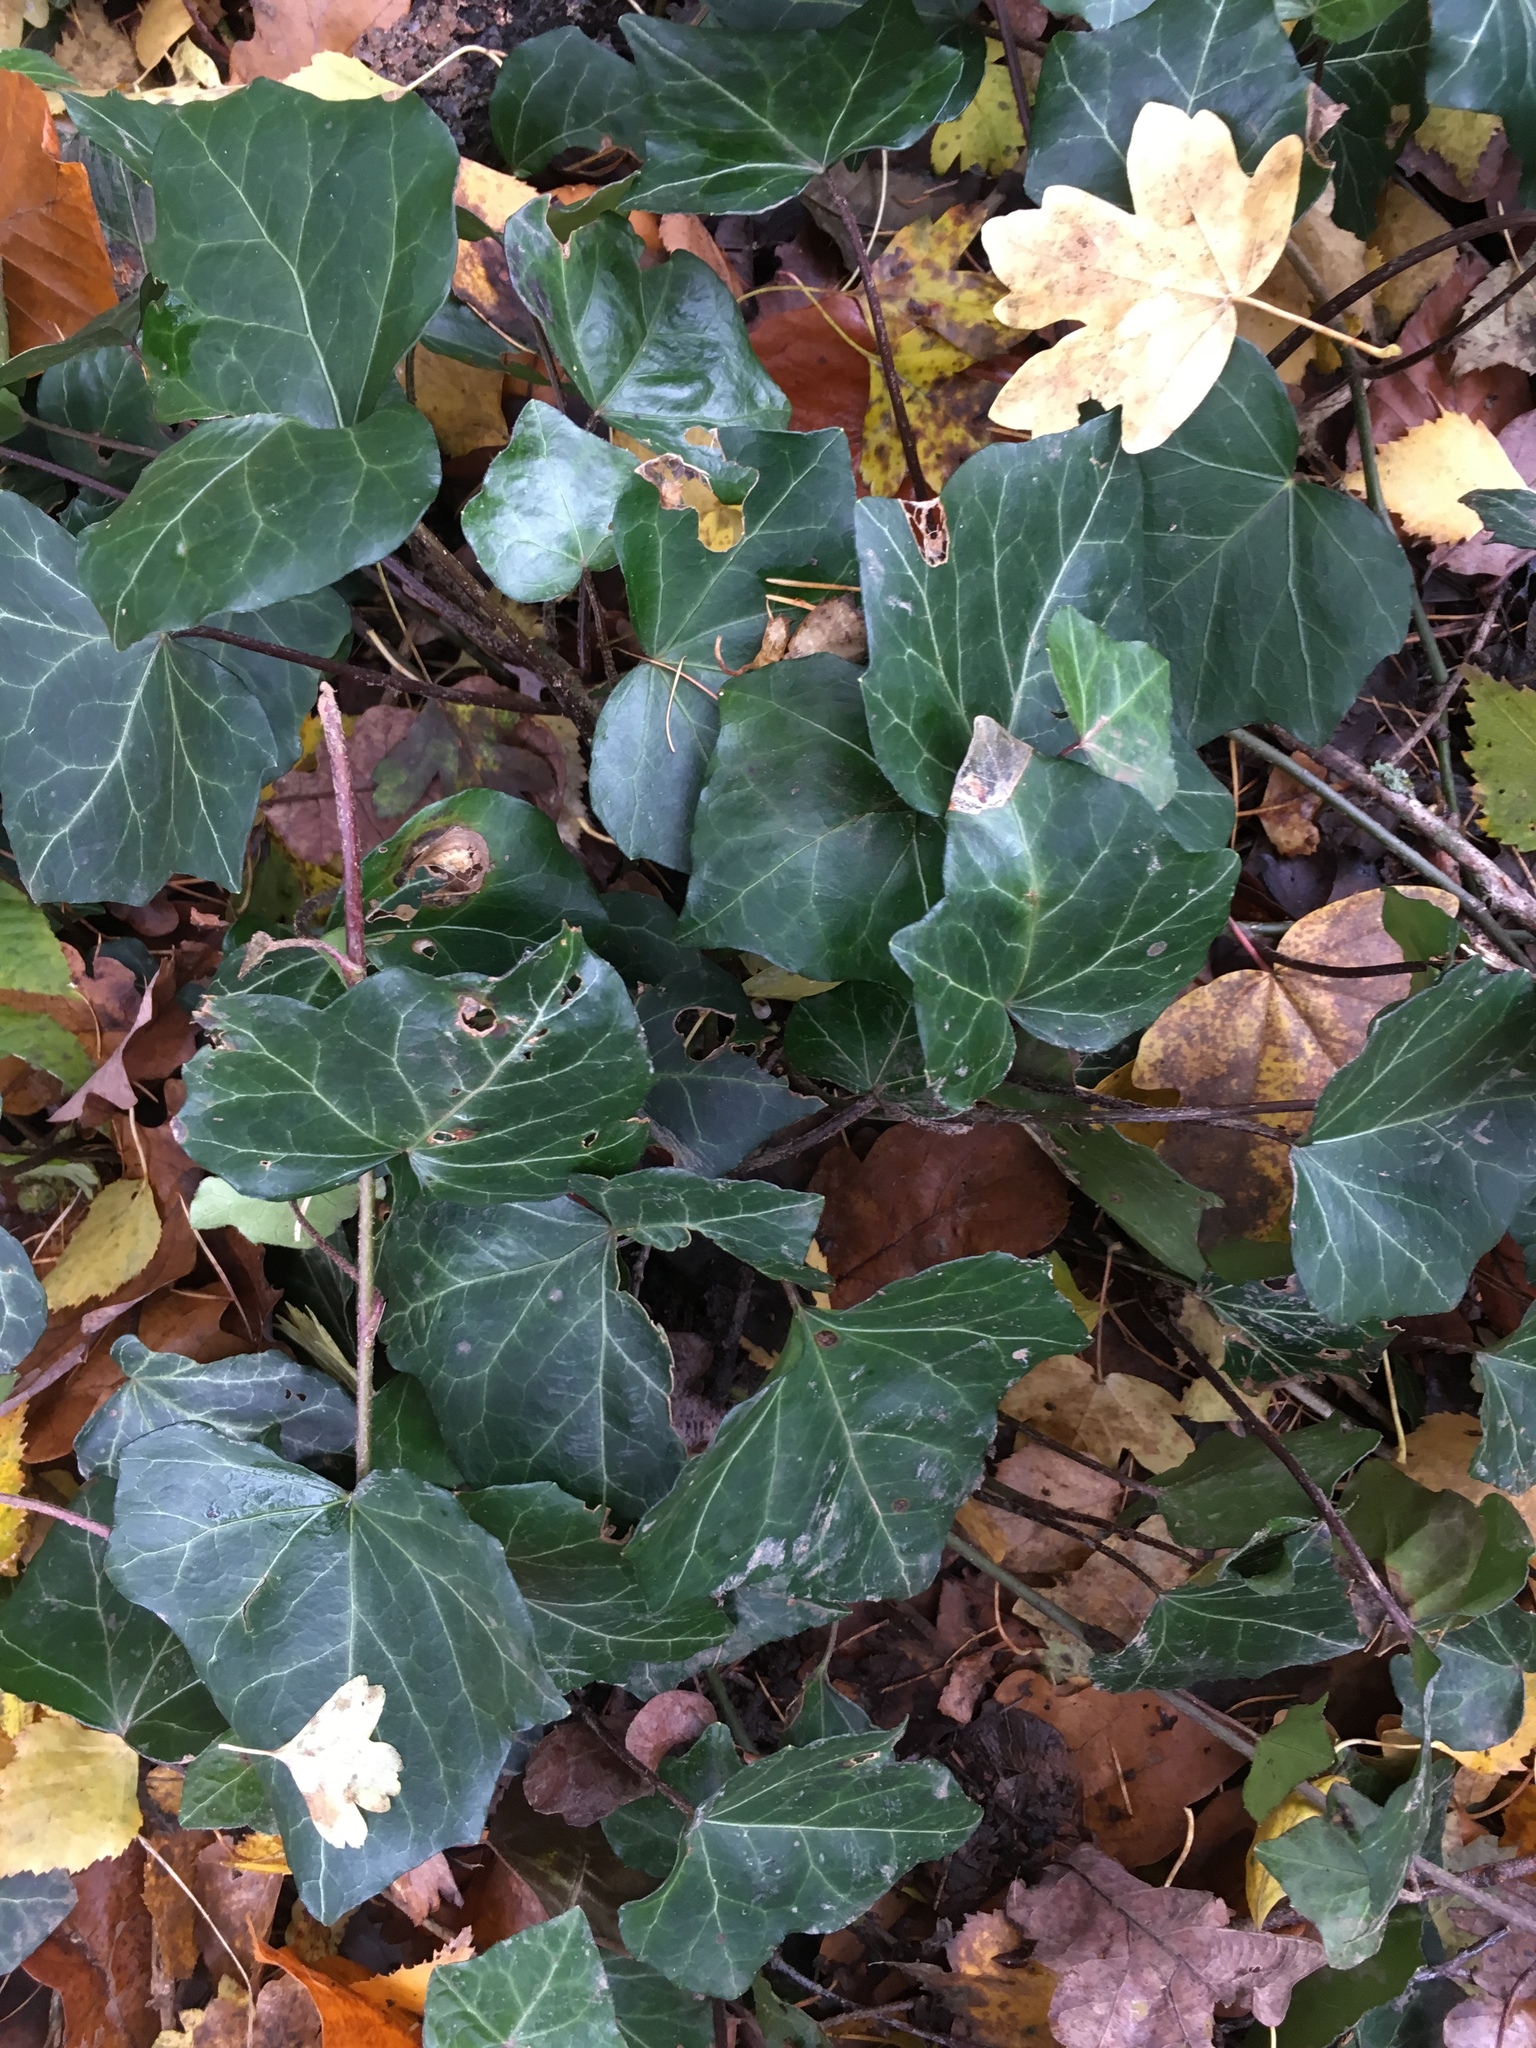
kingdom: Plantae
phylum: Tracheophyta
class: Magnoliopsida
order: Apiales
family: Araliaceae
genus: Hedera
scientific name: Hedera helix
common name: Ivy
